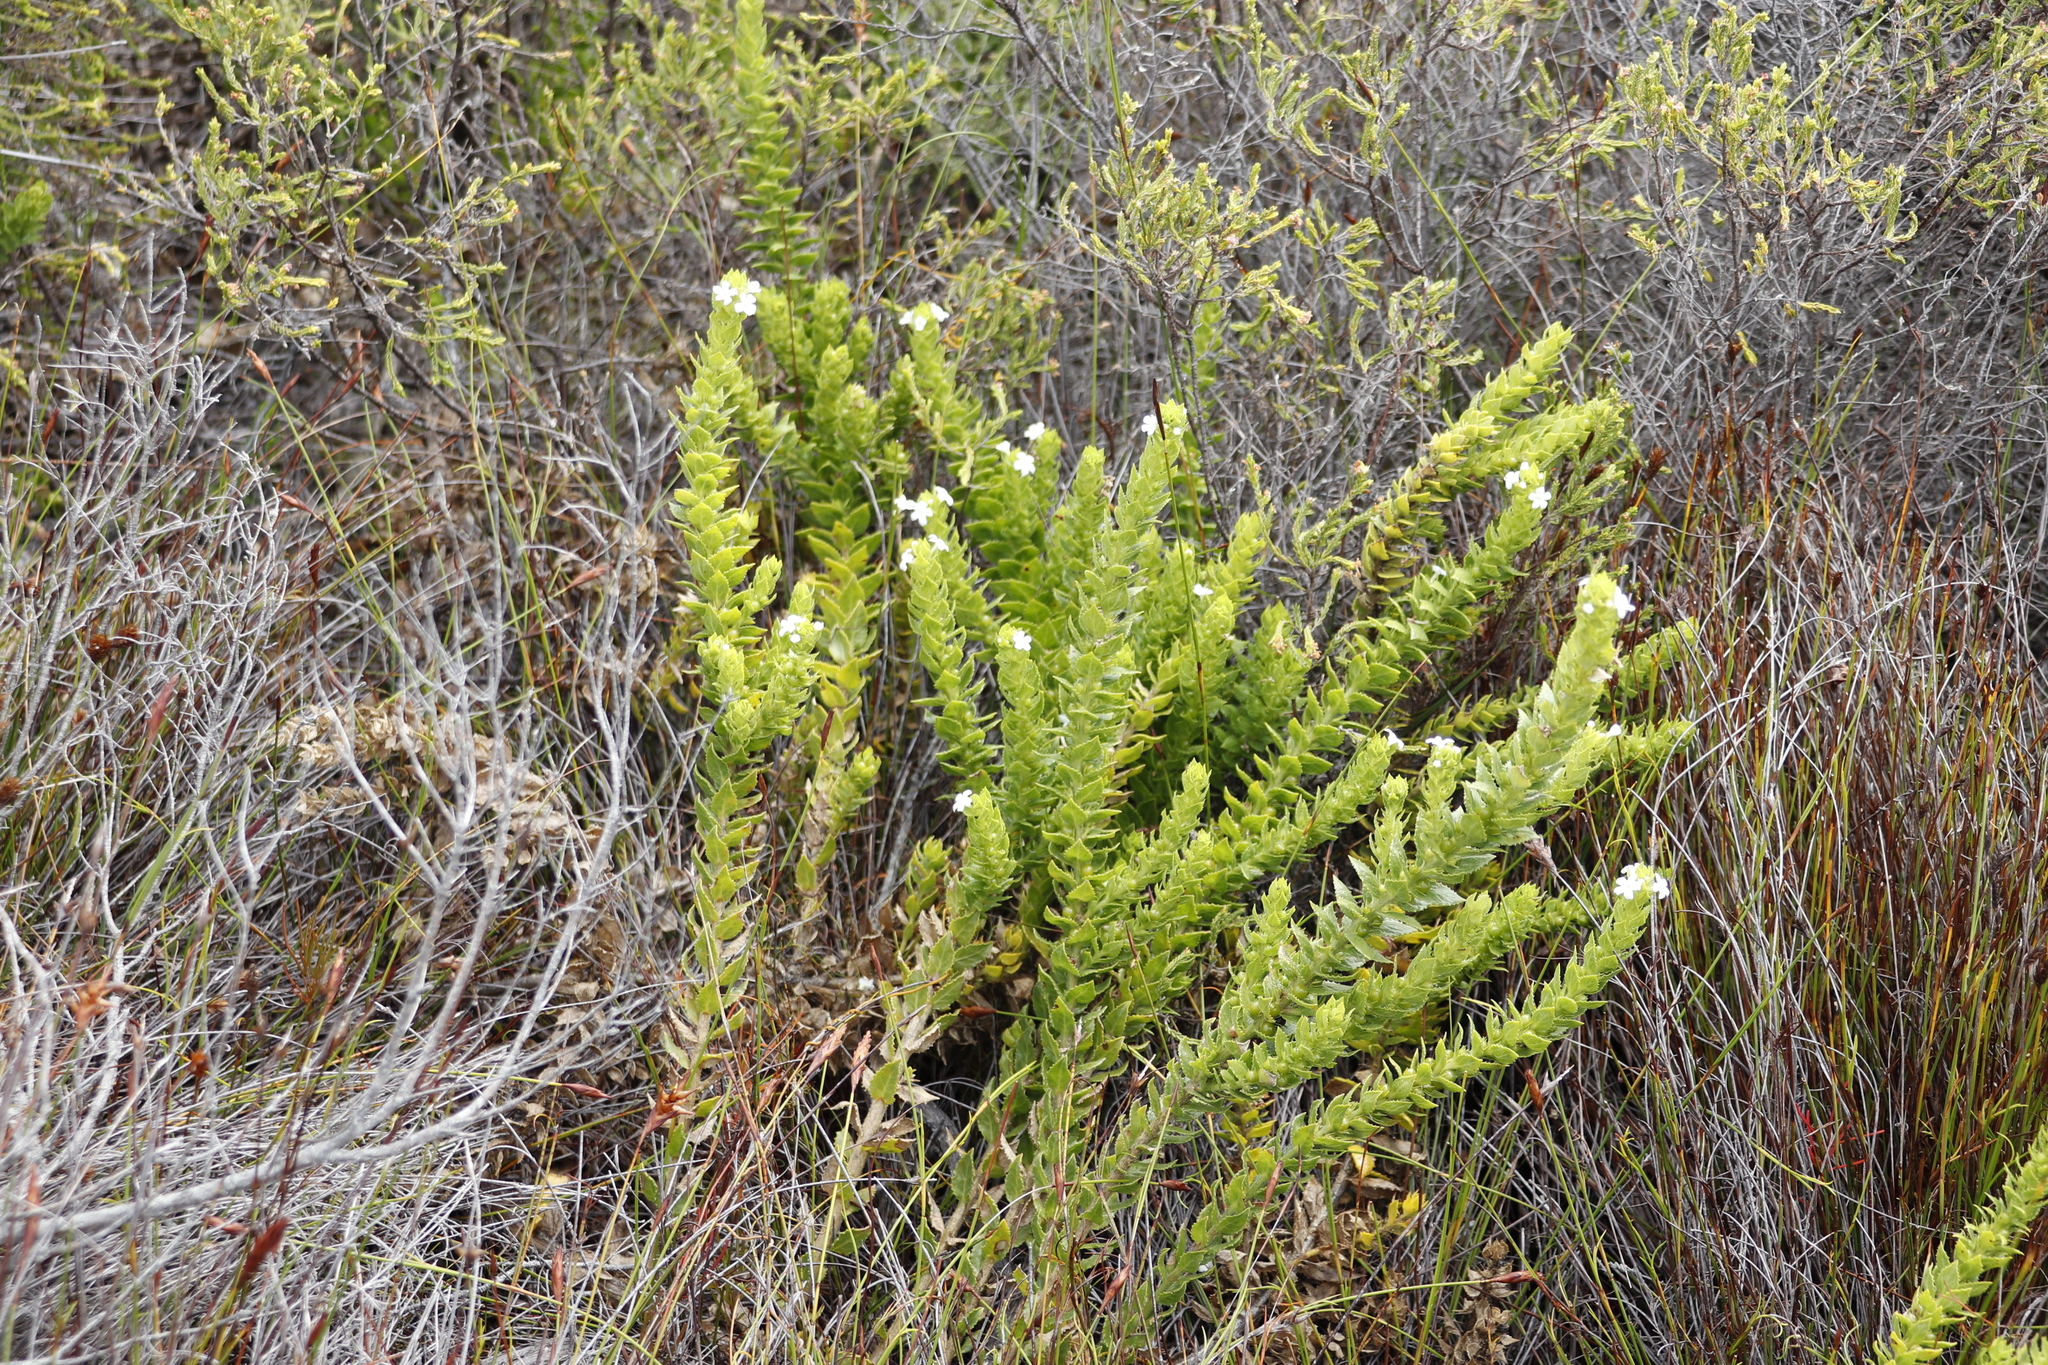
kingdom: Plantae
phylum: Tracheophyta
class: Magnoliopsida
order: Lamiales
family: Scrophulariaceae
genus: Oftia
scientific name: Oftia africana
